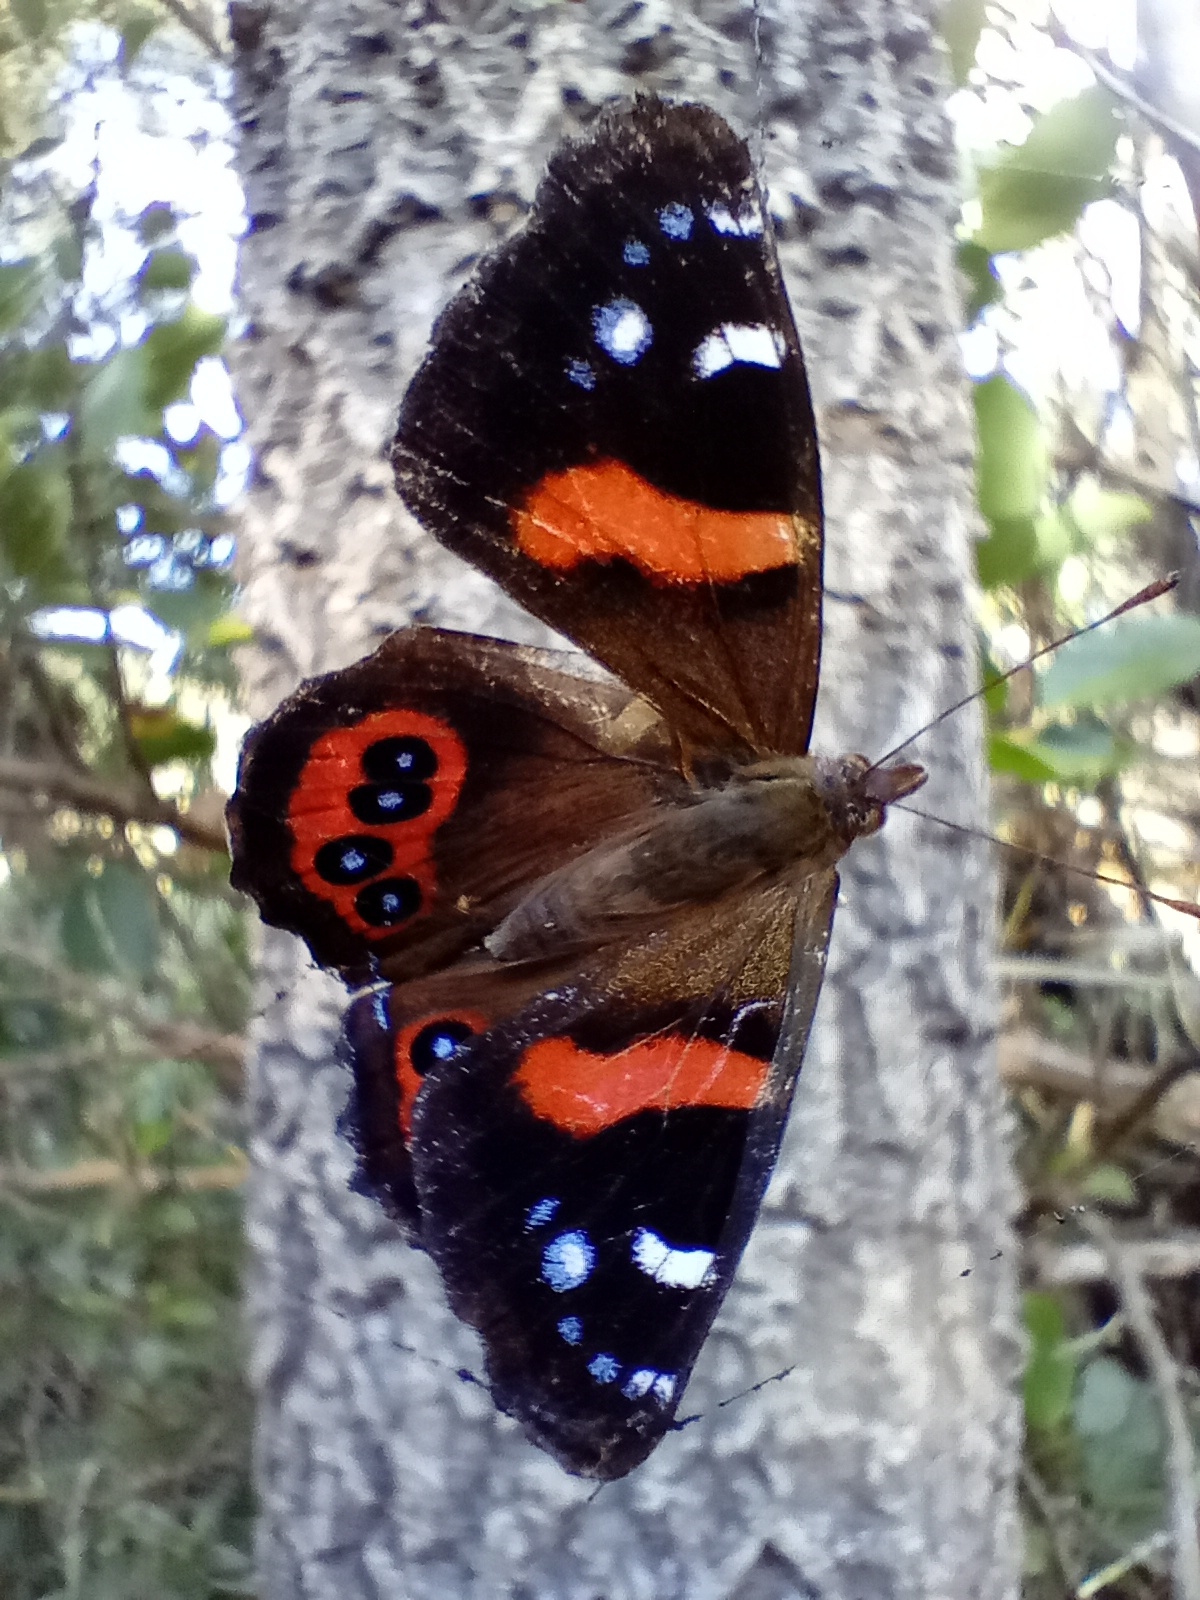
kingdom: Animalia
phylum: Arthropoda
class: Insecta
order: Lepidoptera
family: Nymphalidae
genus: Vanessa
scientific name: Vanessa gonerilla
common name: New zealand red admiral
